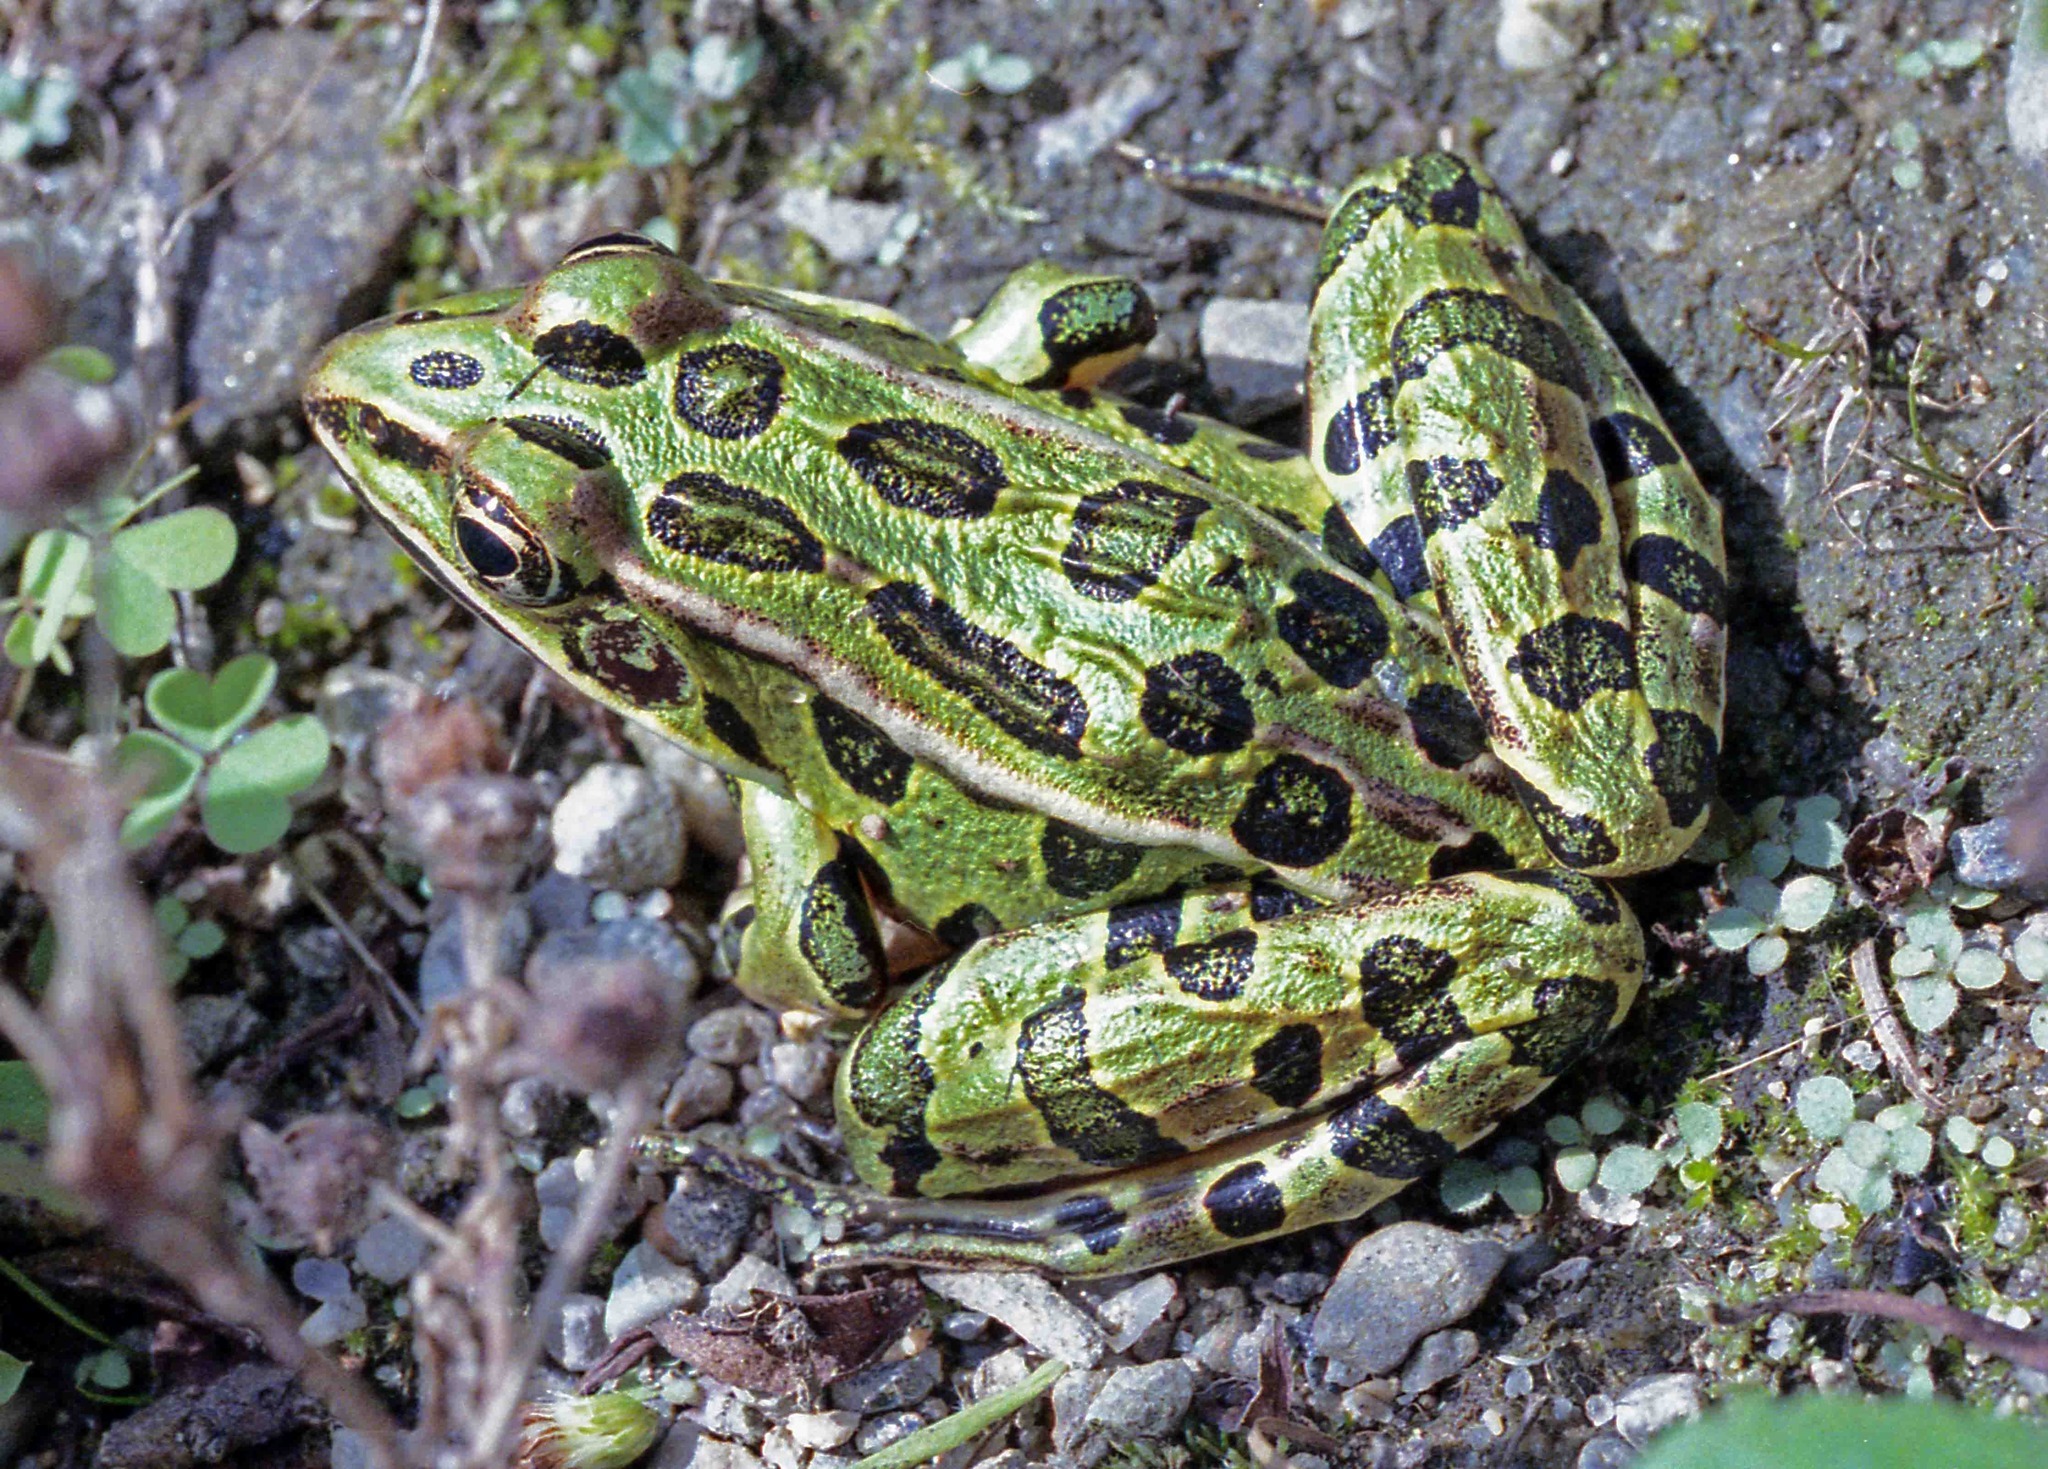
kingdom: Animalia
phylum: Chordata
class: Amphibia
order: Anura
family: Ranidae
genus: Lithobates
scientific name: Lithobates pipiens
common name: Northern leopard frog
